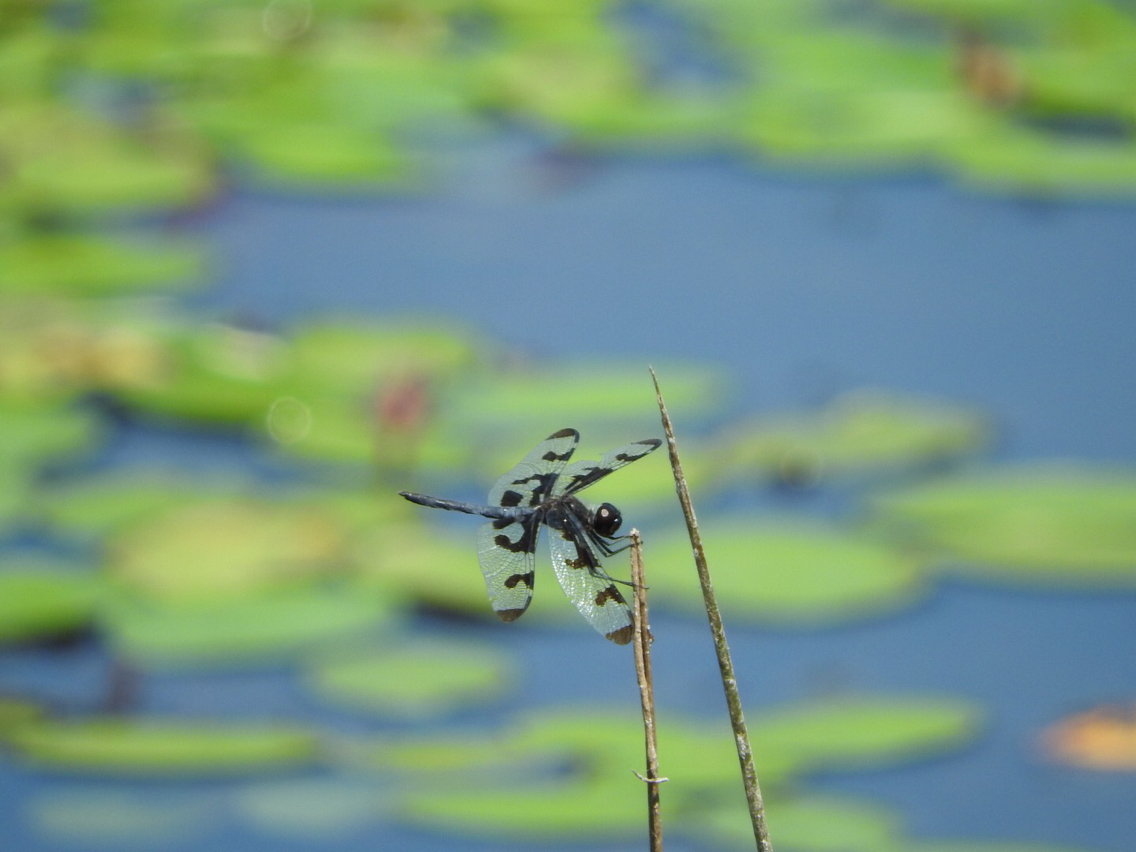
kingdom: Animalia
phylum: Arthropoda
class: Insecta
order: Odonata
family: Libellulidae
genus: Celithemis
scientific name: Celithemis fasciata
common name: Banded pennant
